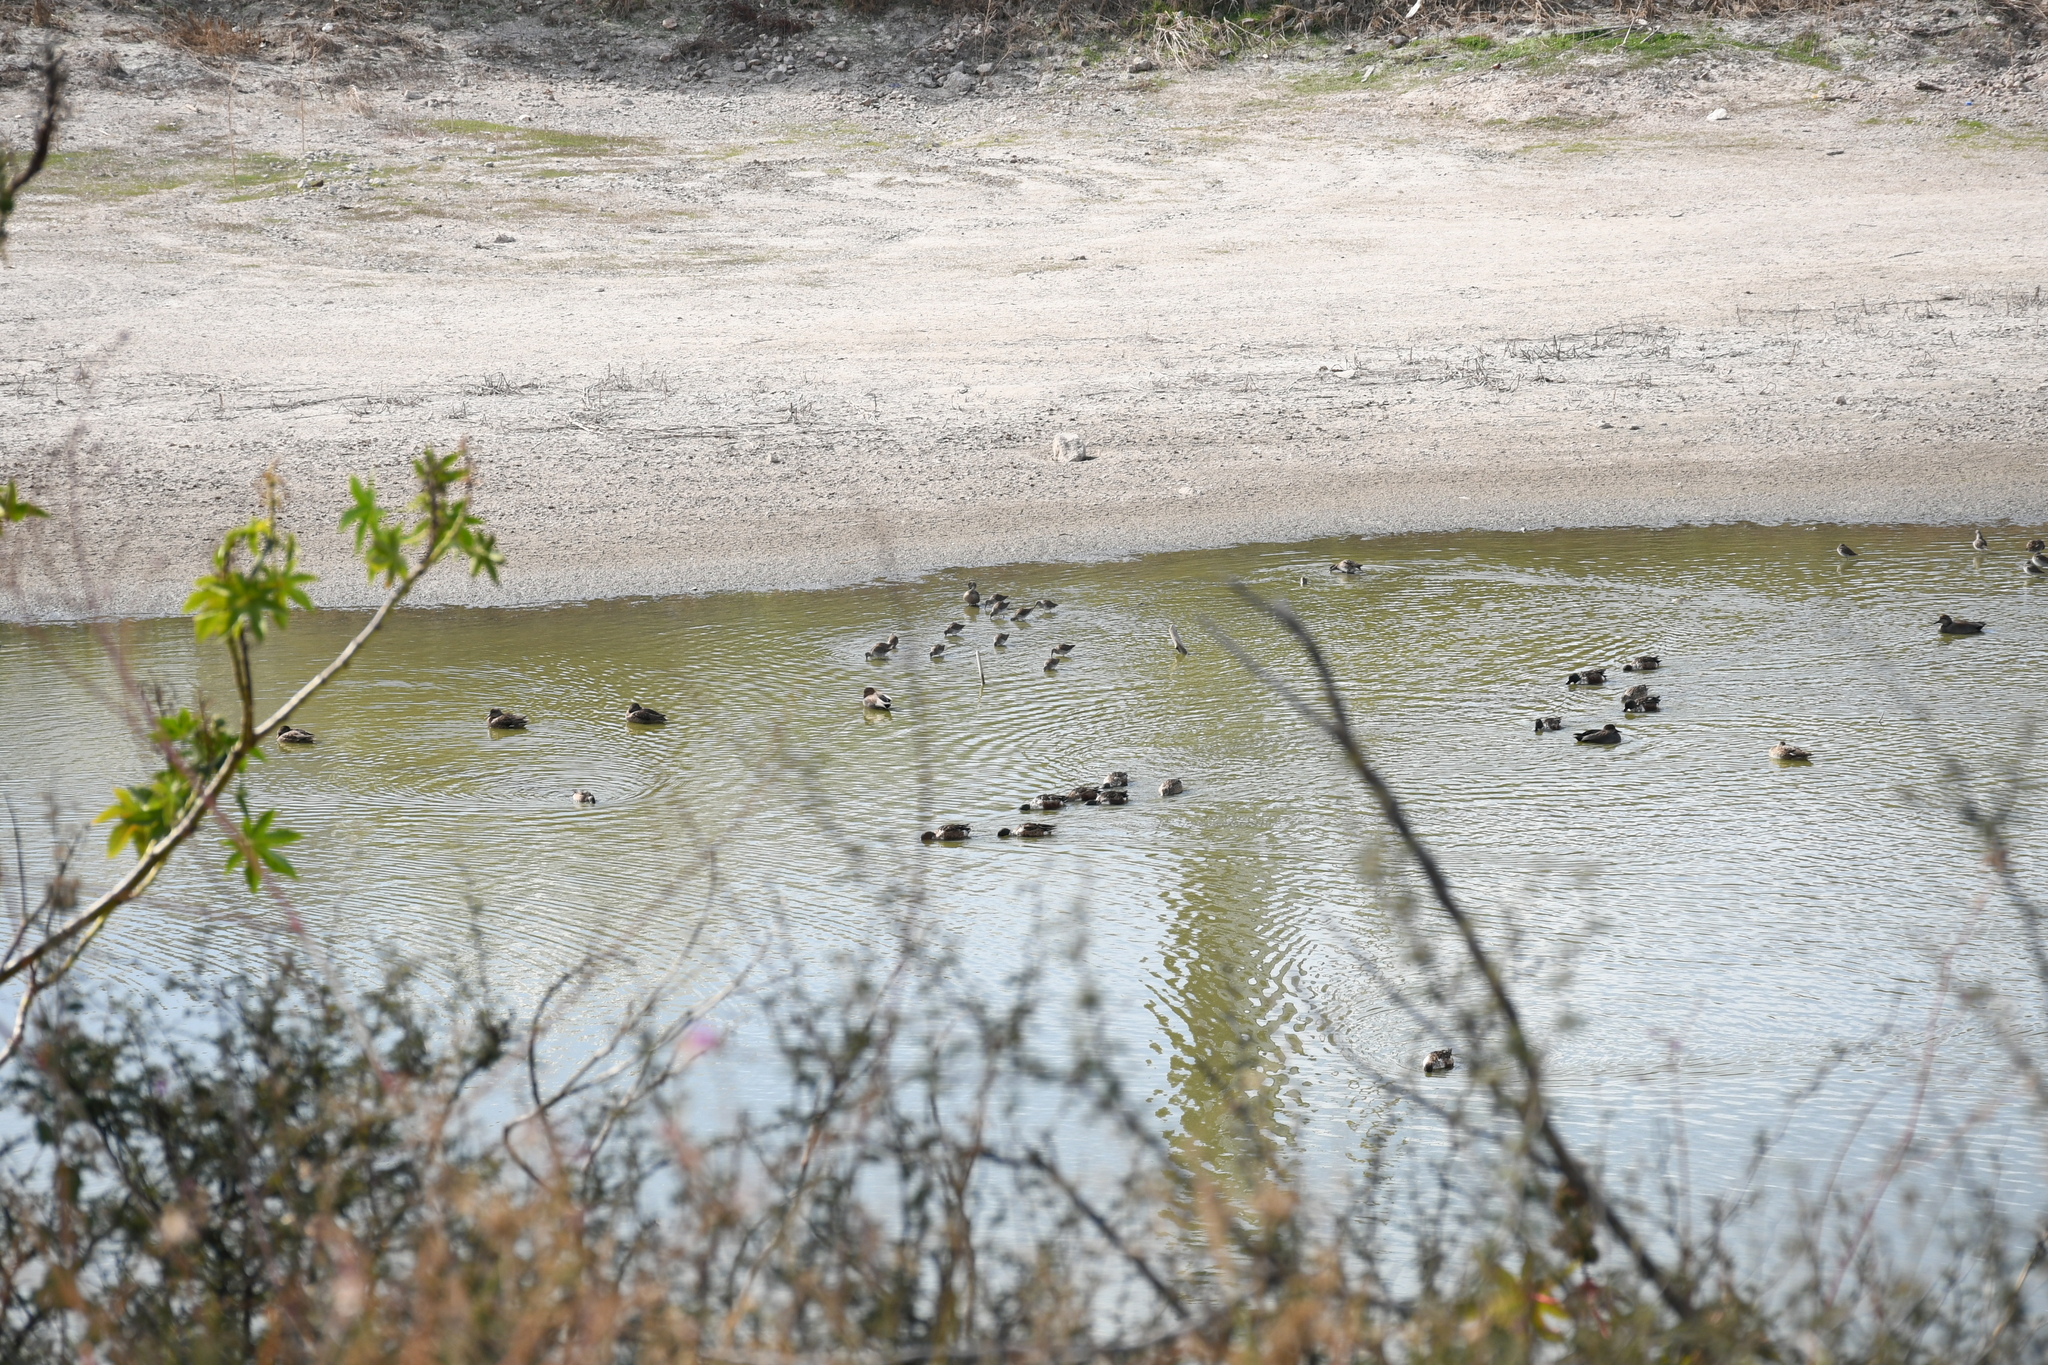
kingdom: Animalia
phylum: Chordata
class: Aves
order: Charadriiformes
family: Scolopacidae
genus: Limnodromus
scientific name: Limnodromus
